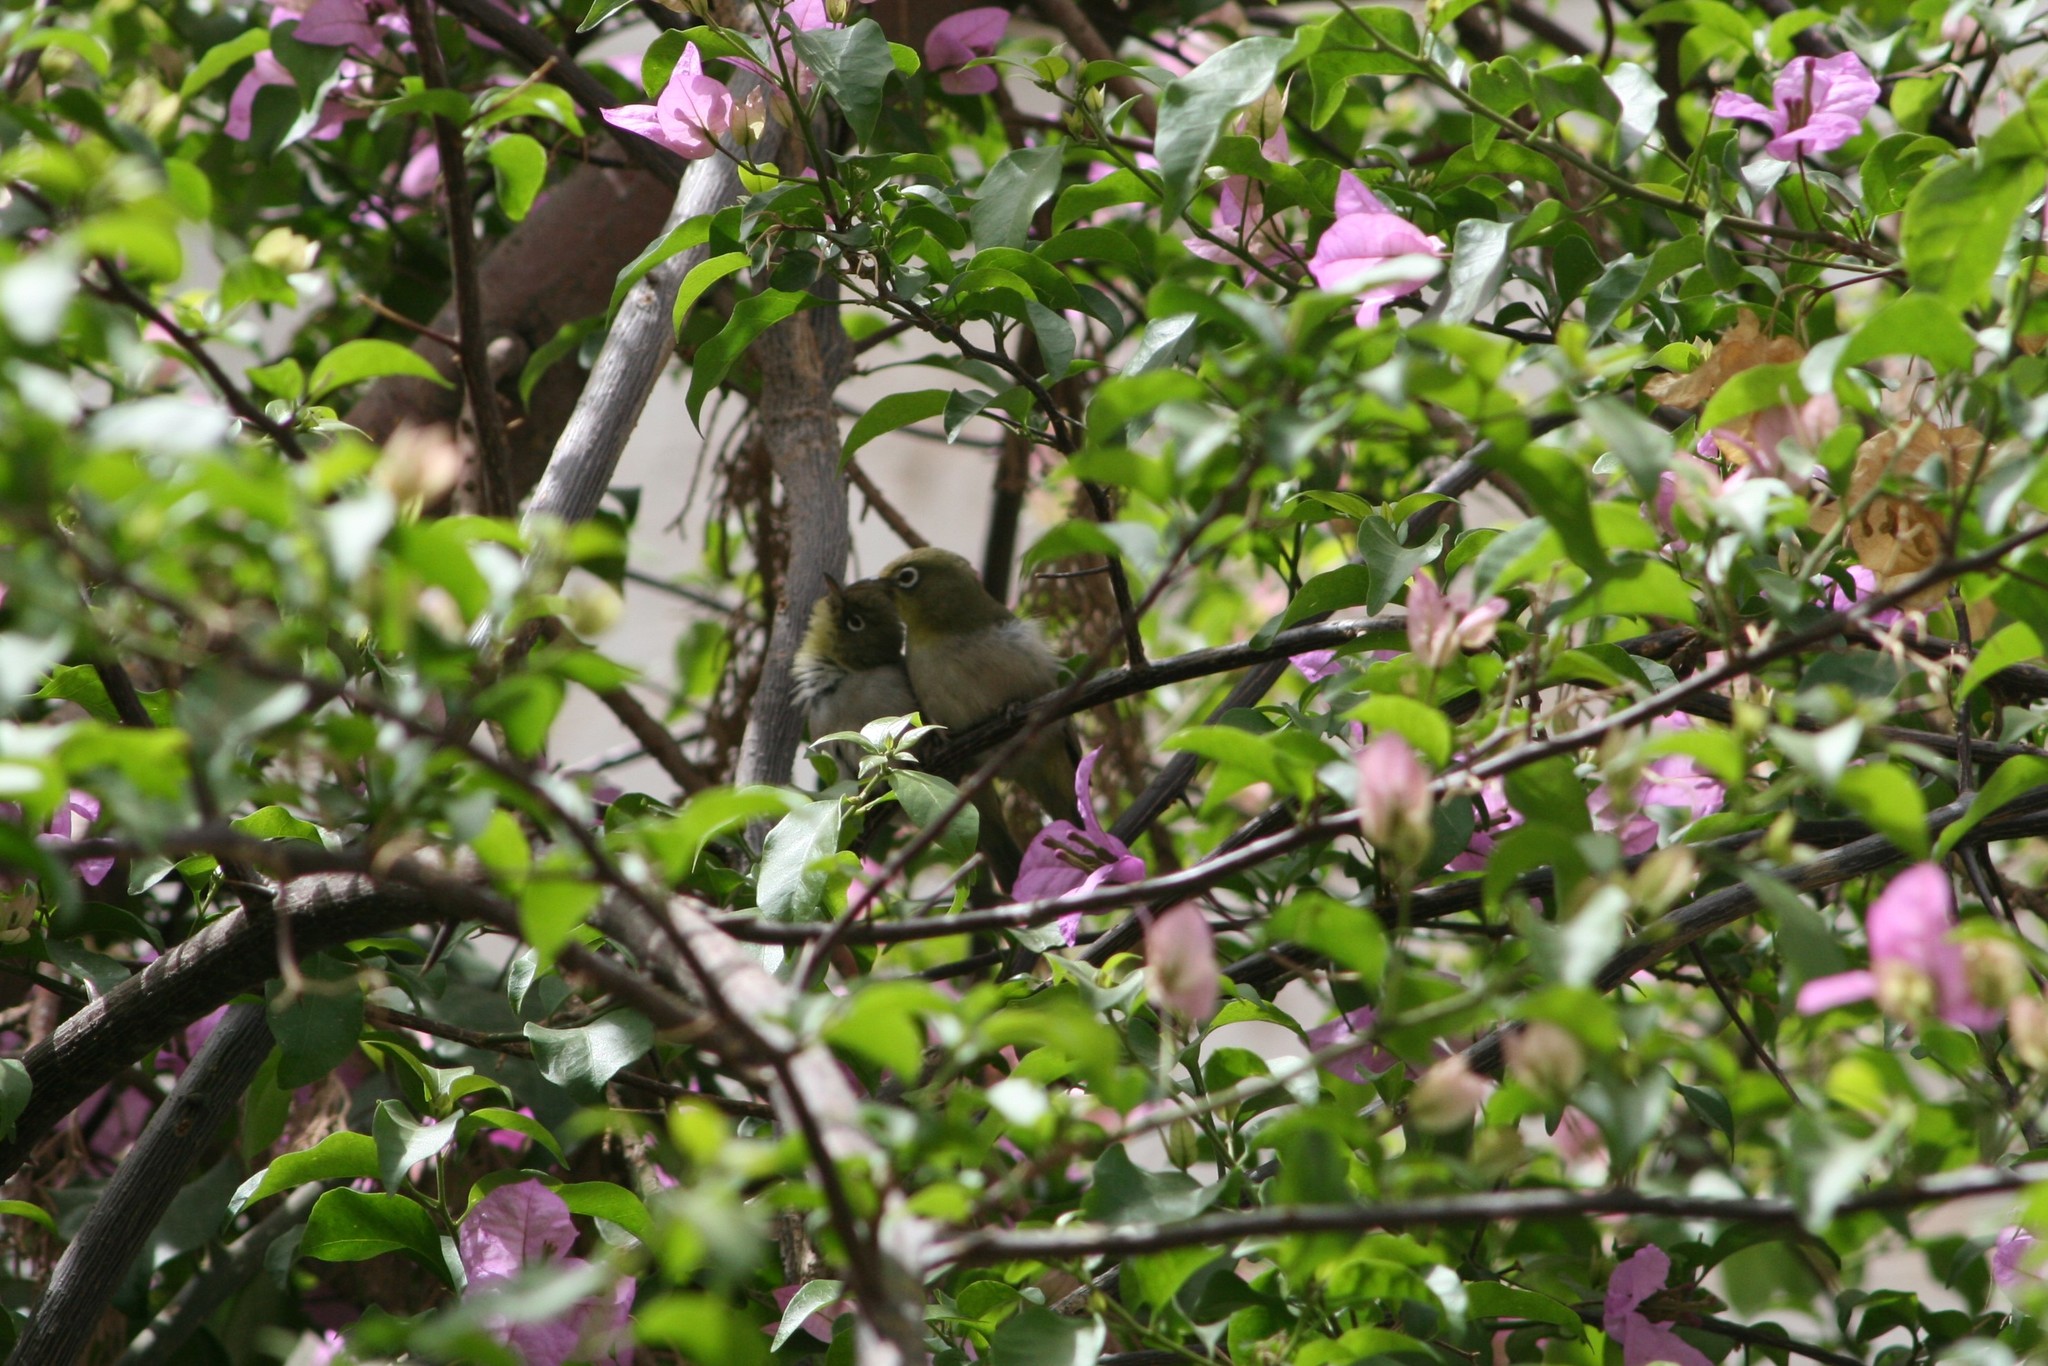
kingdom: Animalia
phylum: Chordata
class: Aves
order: Passeriformes
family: Zosteropidae
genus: Zosterops
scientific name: Zosterops abyssinicus
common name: Abyssinian white-eye
